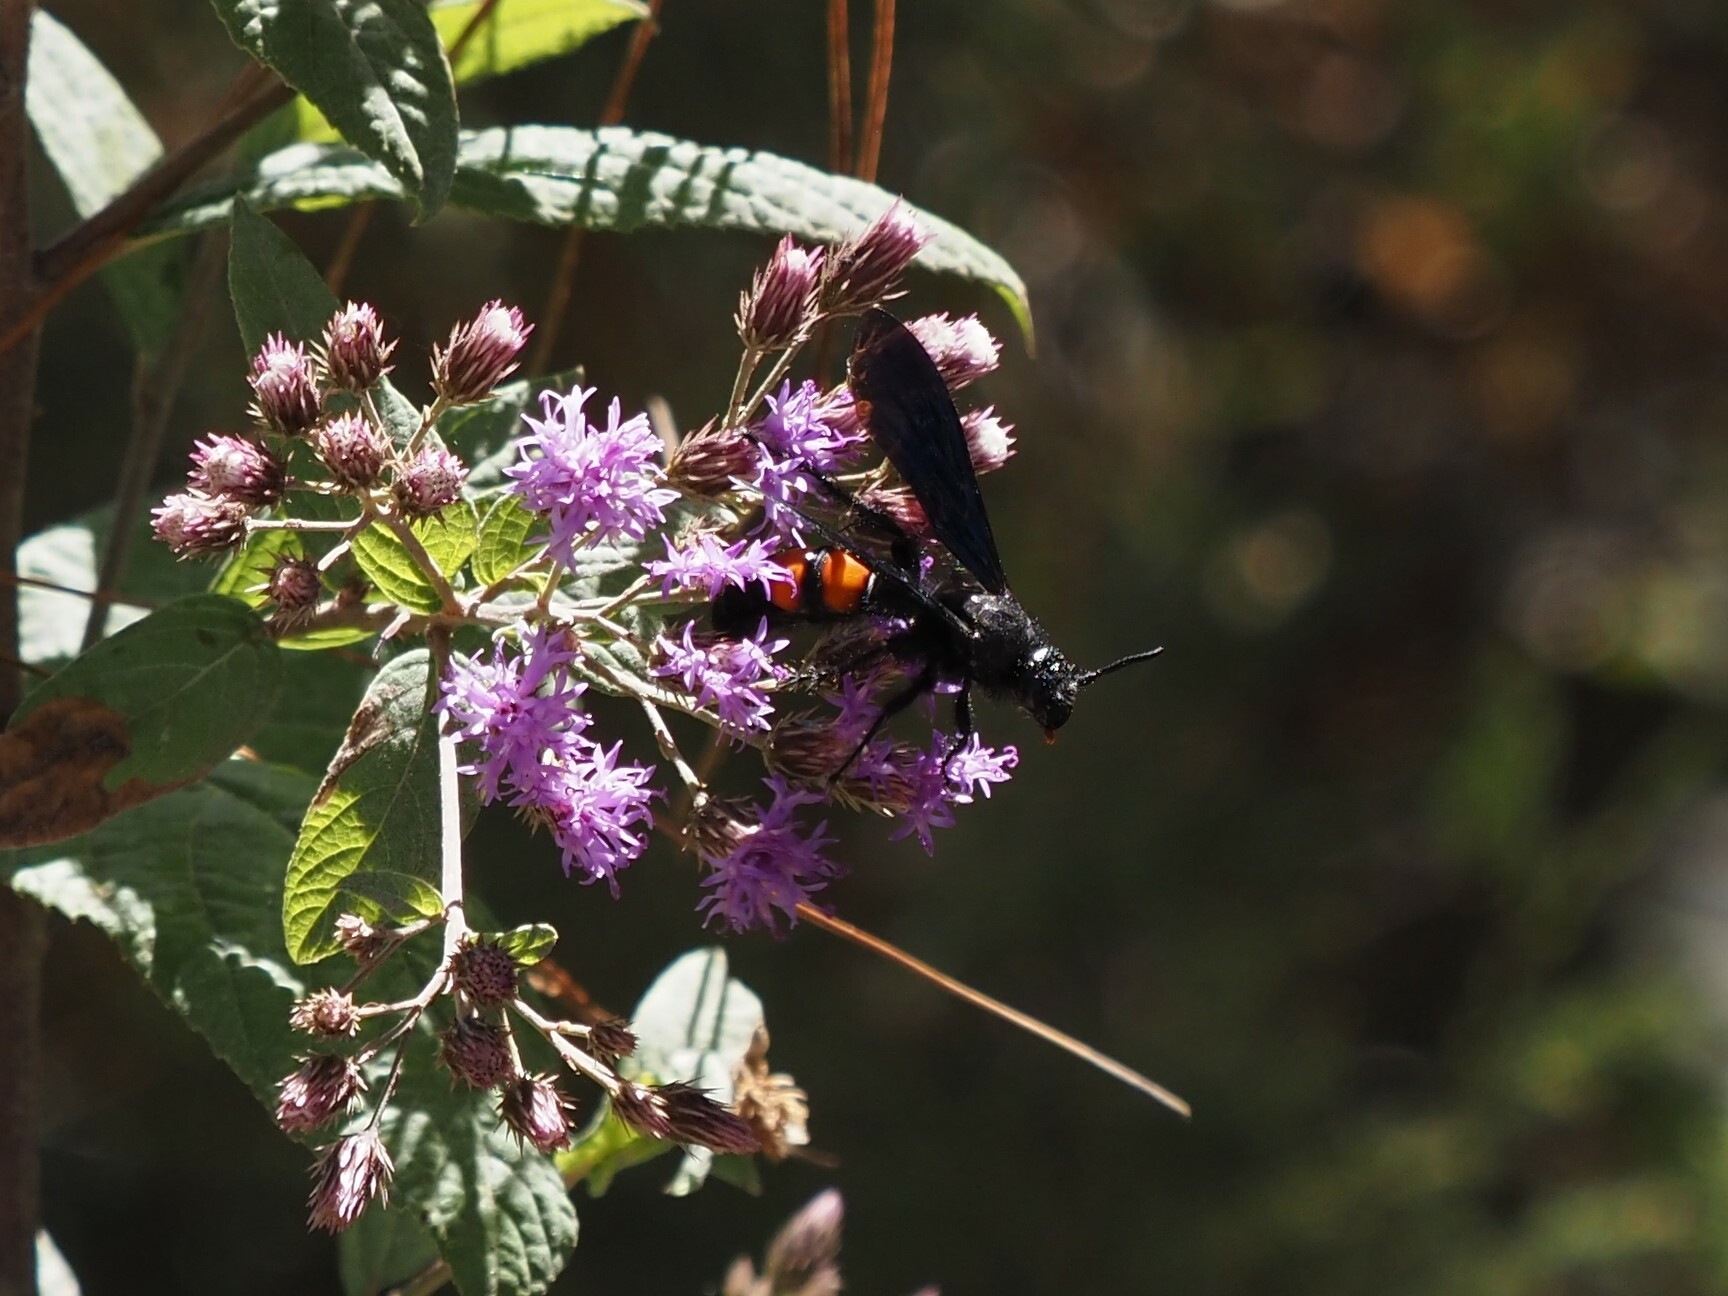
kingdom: Animalia
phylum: Arthropoda
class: Insecta
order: Hymenoptera
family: Scoliidae
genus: Pygodasis
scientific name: Pygodasis ephippium
